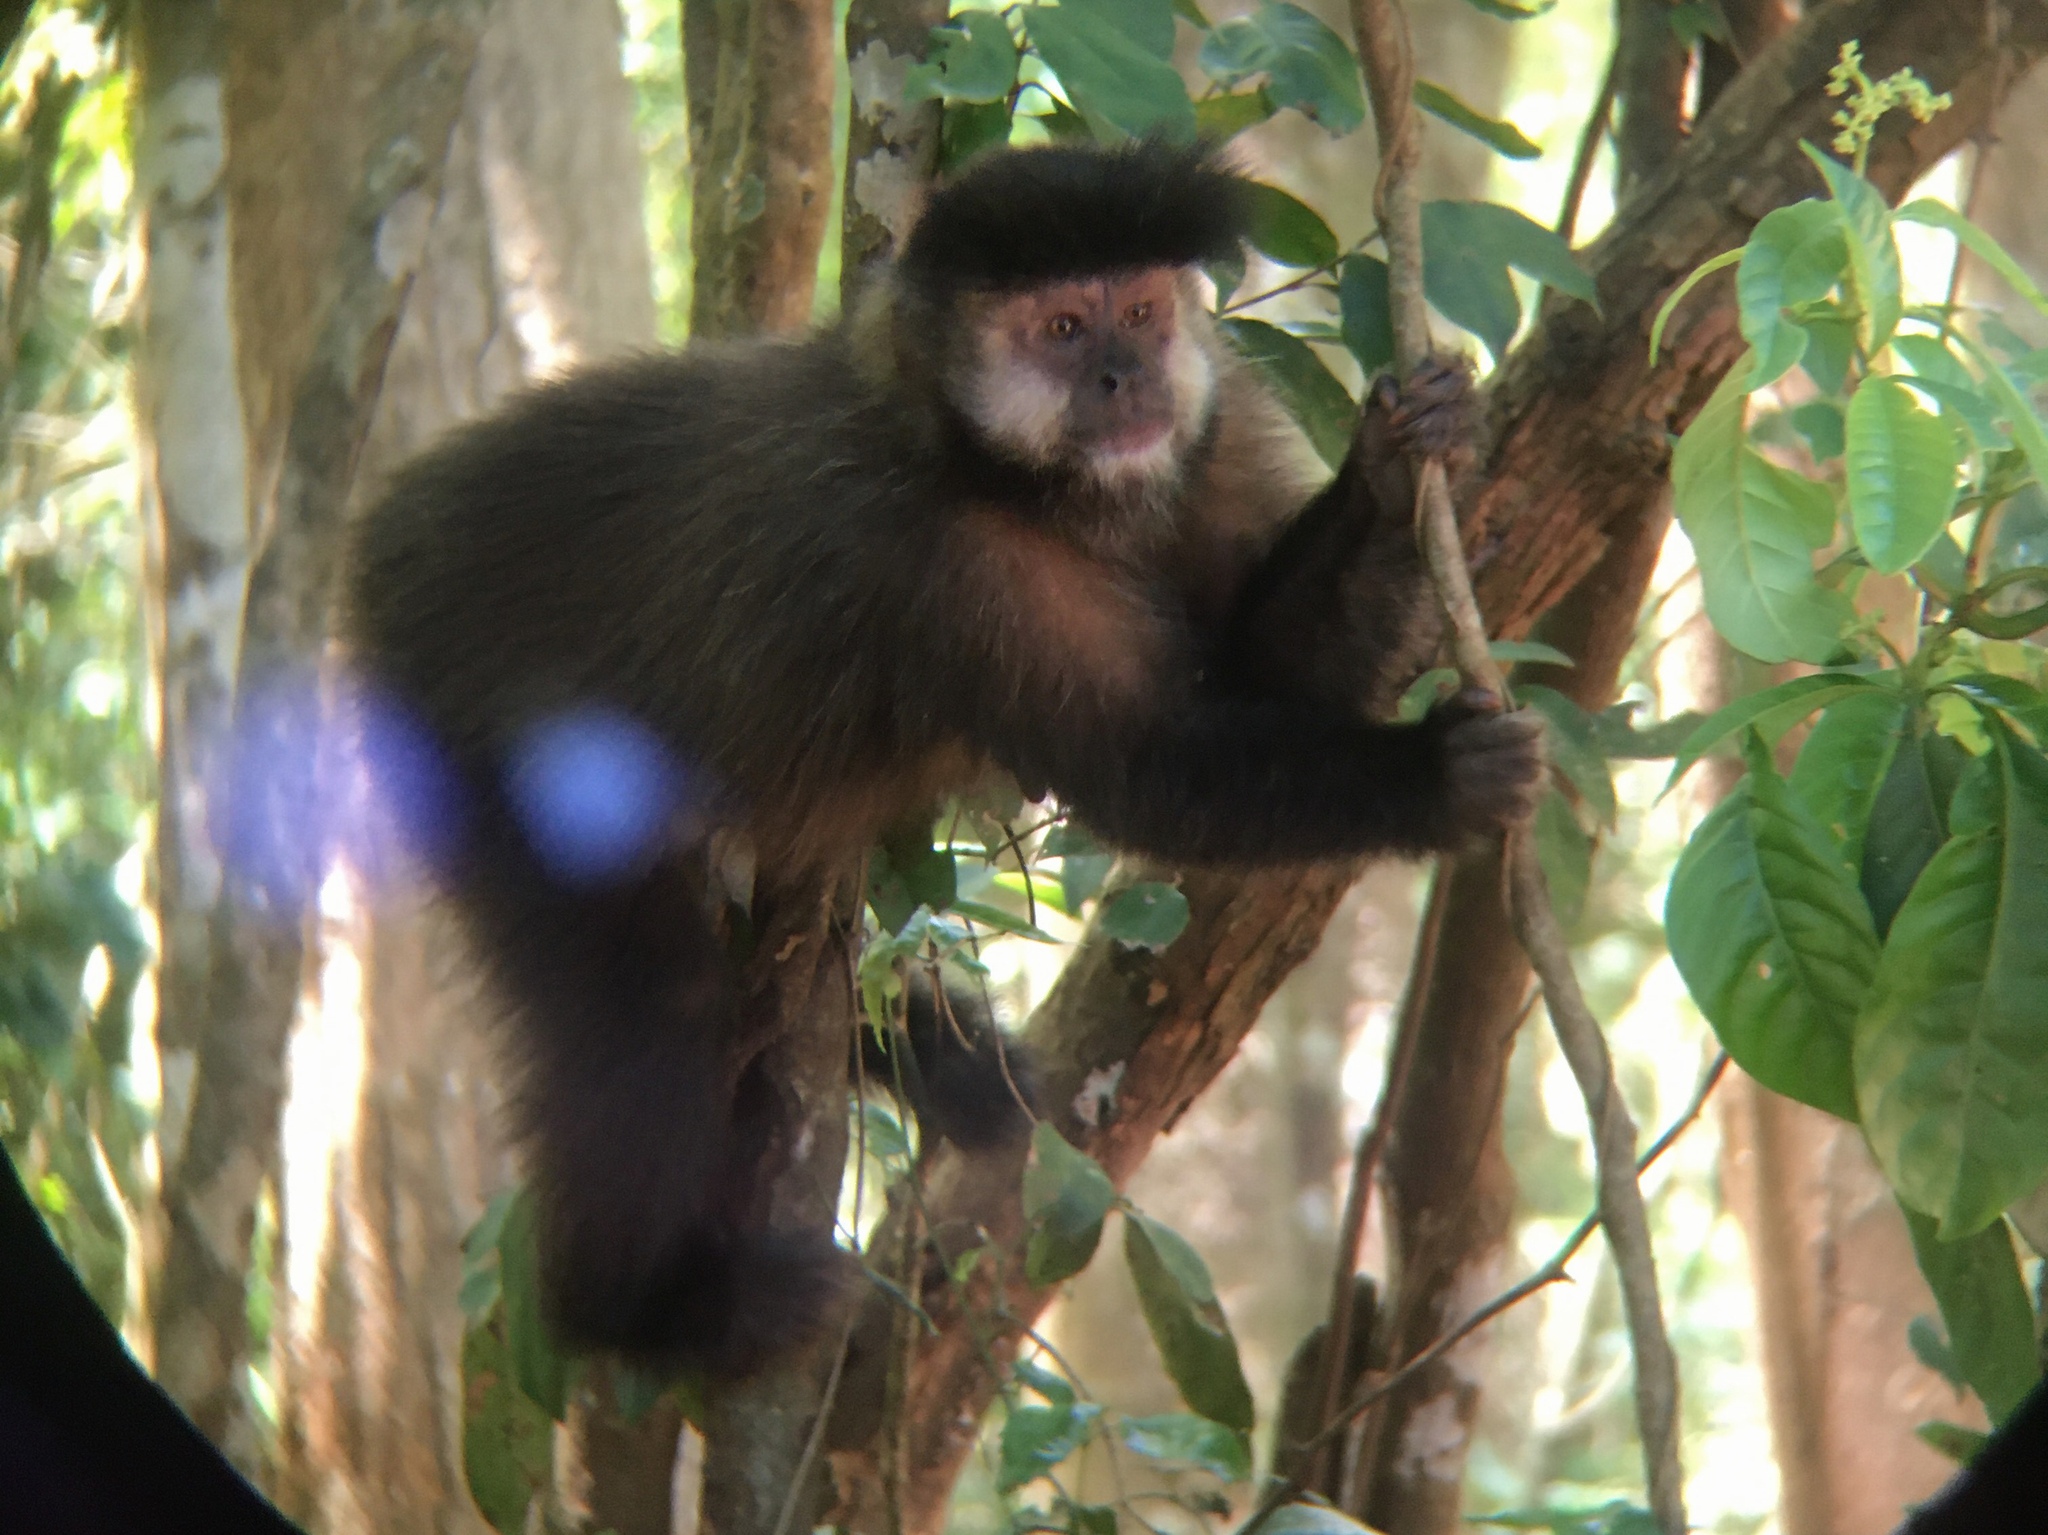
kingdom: Animalia
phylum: Chordata
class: Mammalia
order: Primates
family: Cebidae
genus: Sapajus
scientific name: Sapajus nigritus
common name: Black capuchin
